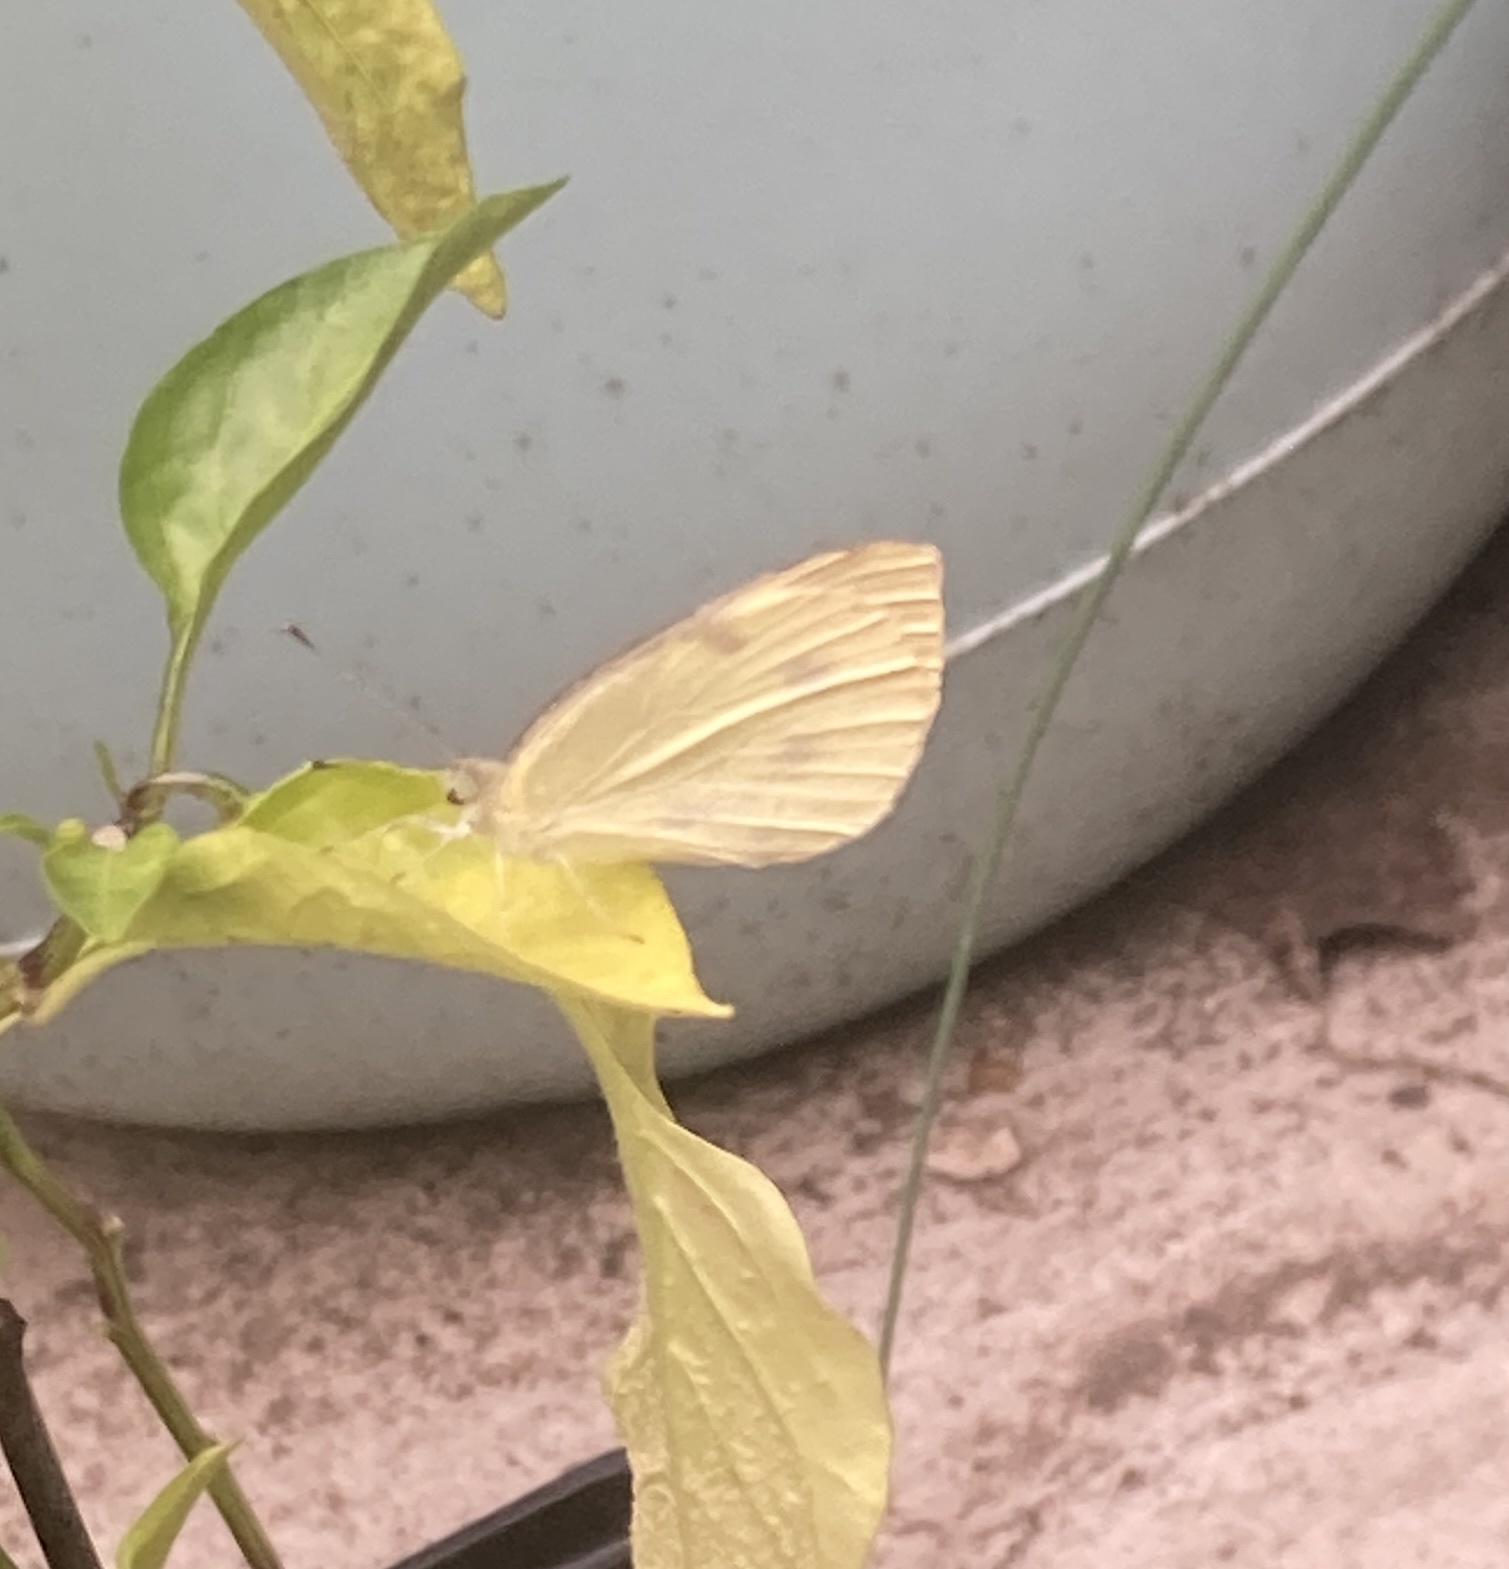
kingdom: Animalia
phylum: Arthropoda
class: Insecta
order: Lepidoptera
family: Pieridae
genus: Pieris
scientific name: Pieris rapae
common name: Small white
